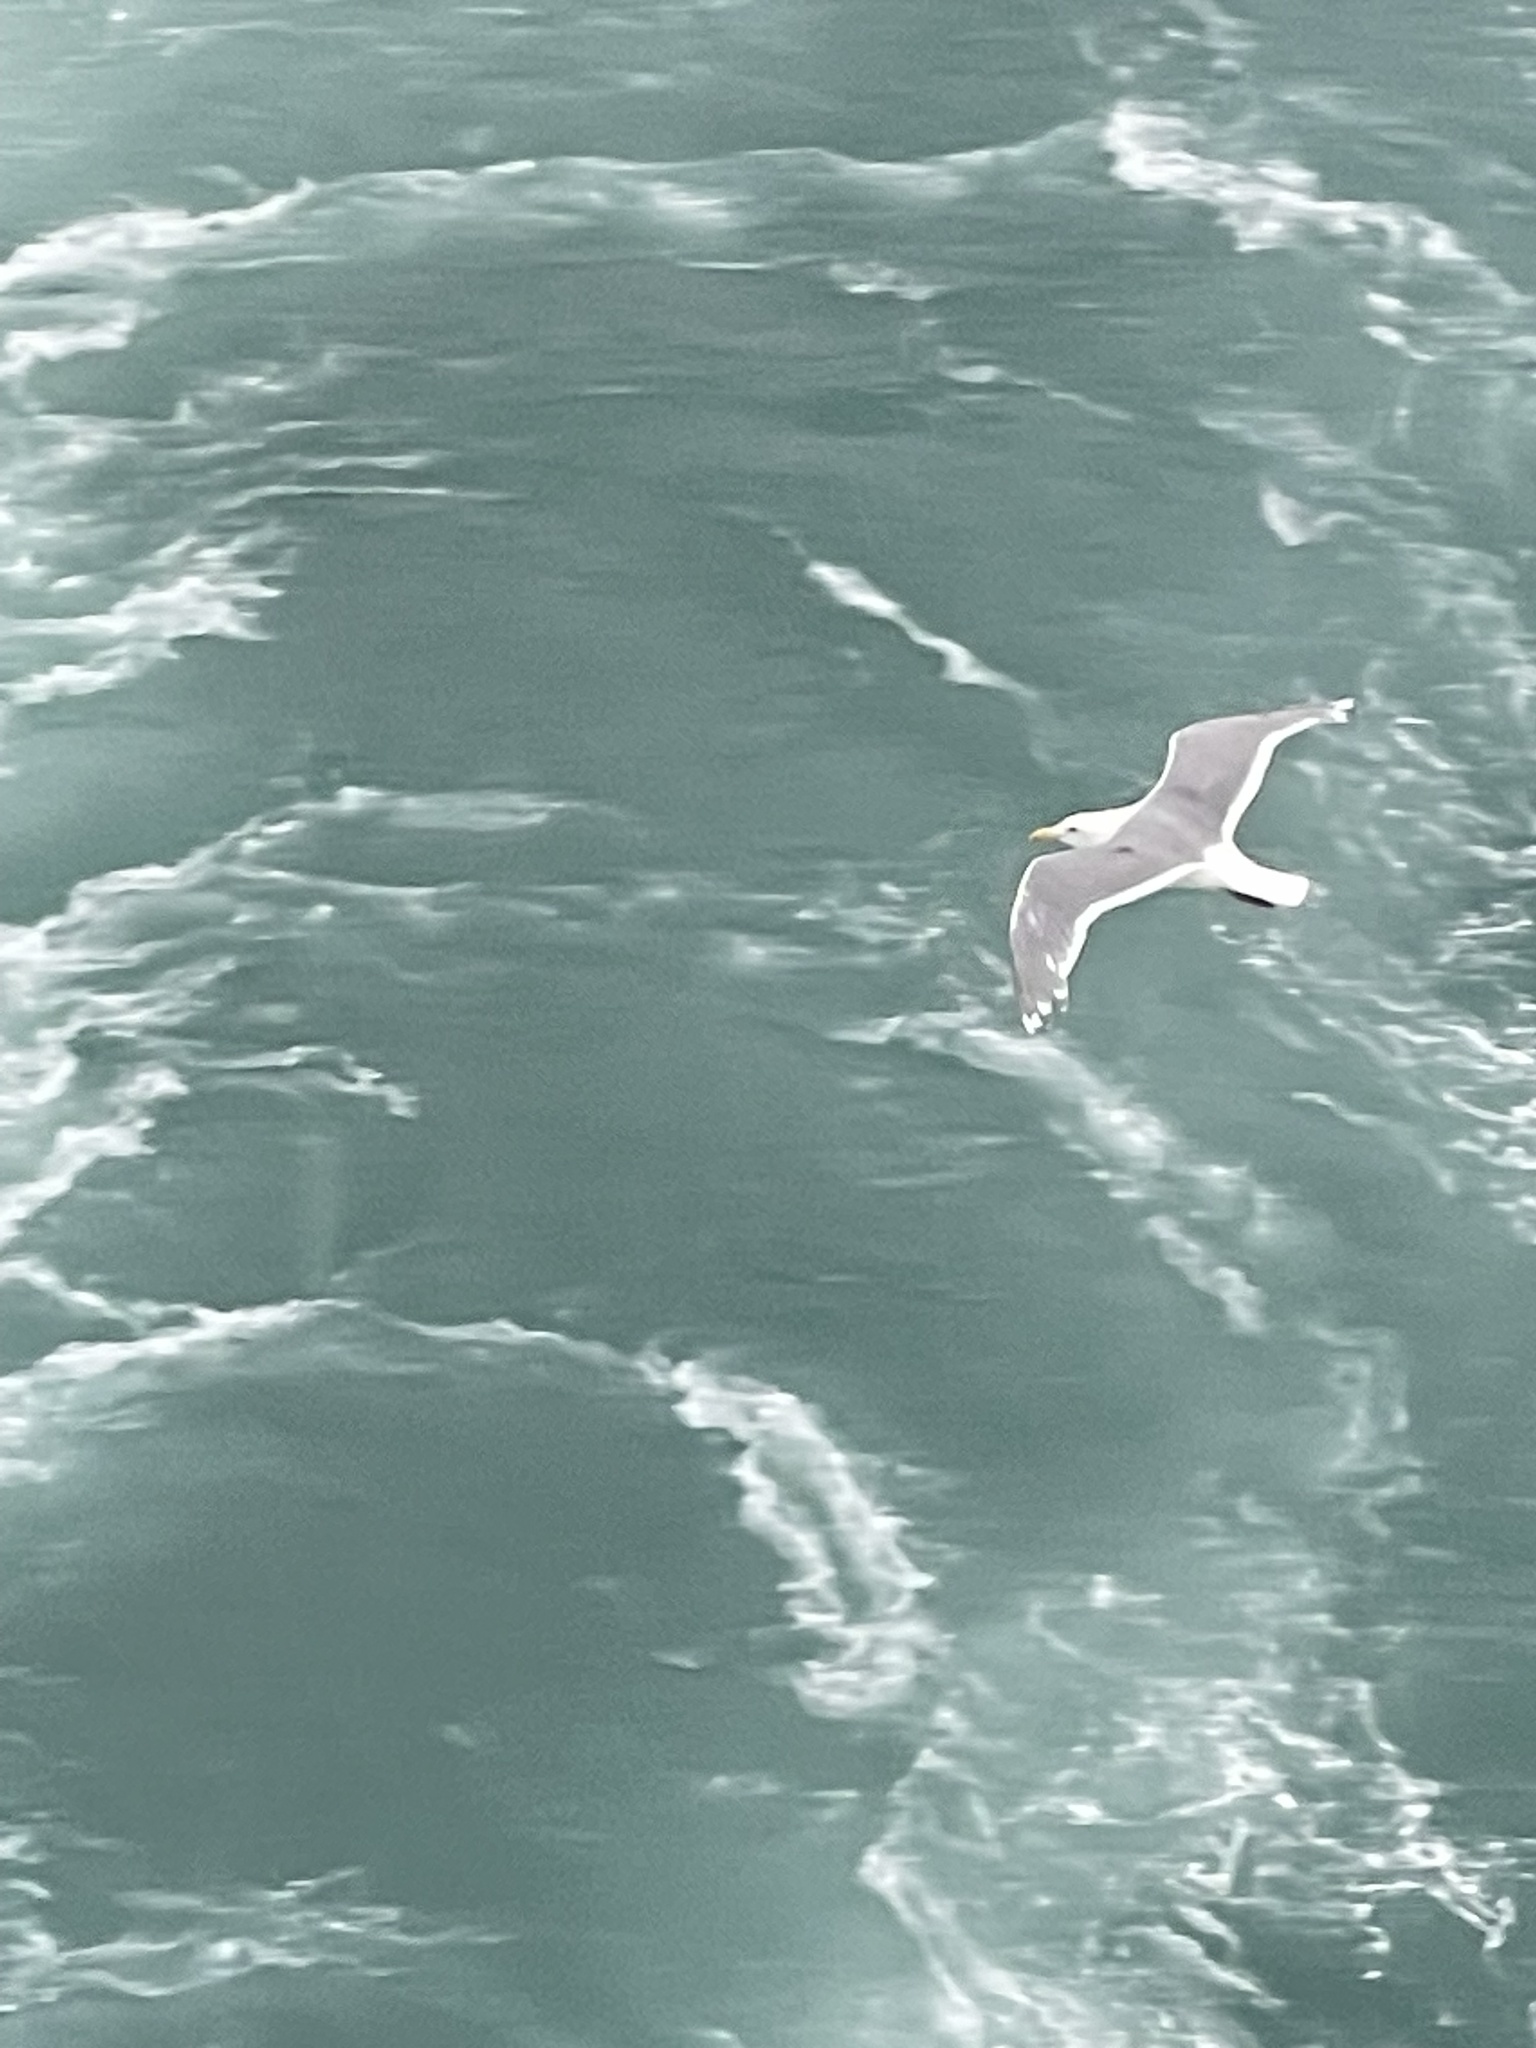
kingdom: Animalia
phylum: Chordata
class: Aves
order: Charadriiformes
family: Laridae
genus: Larus
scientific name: Larus glaucescens
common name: Glaucous-winged gull
